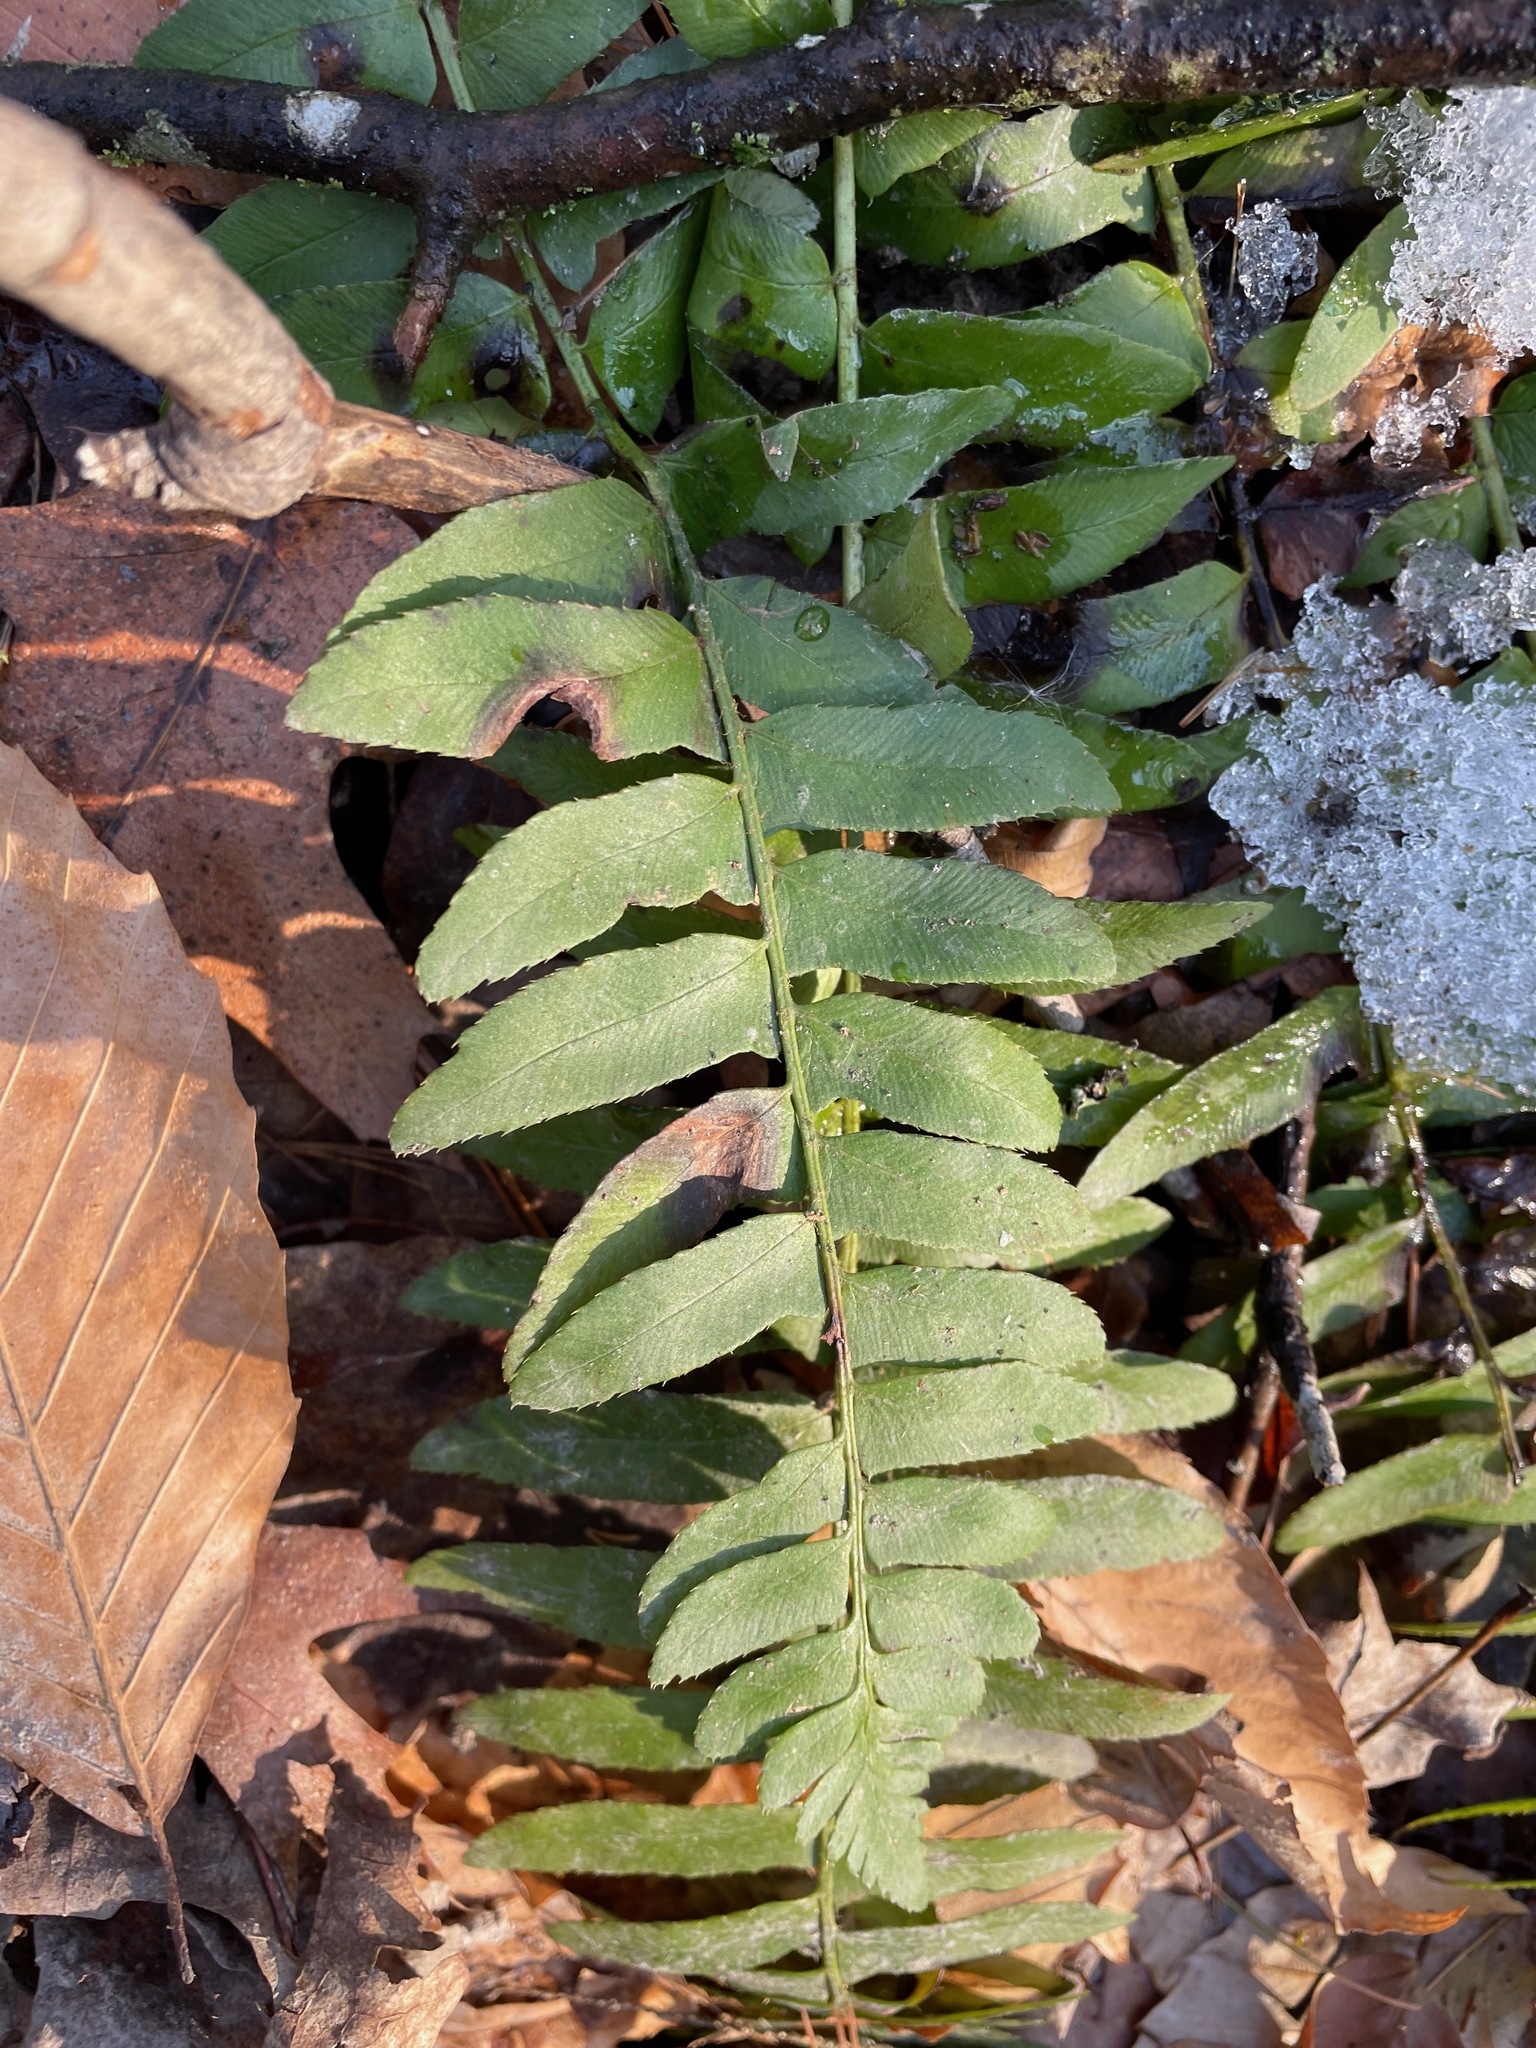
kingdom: Plantae
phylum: Tracheophyta
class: Polypodiopsida
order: Polypodiales
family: Dryopteridaceae
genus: Polystichum
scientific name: Polystichum acrostichoides
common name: Christmas fern
